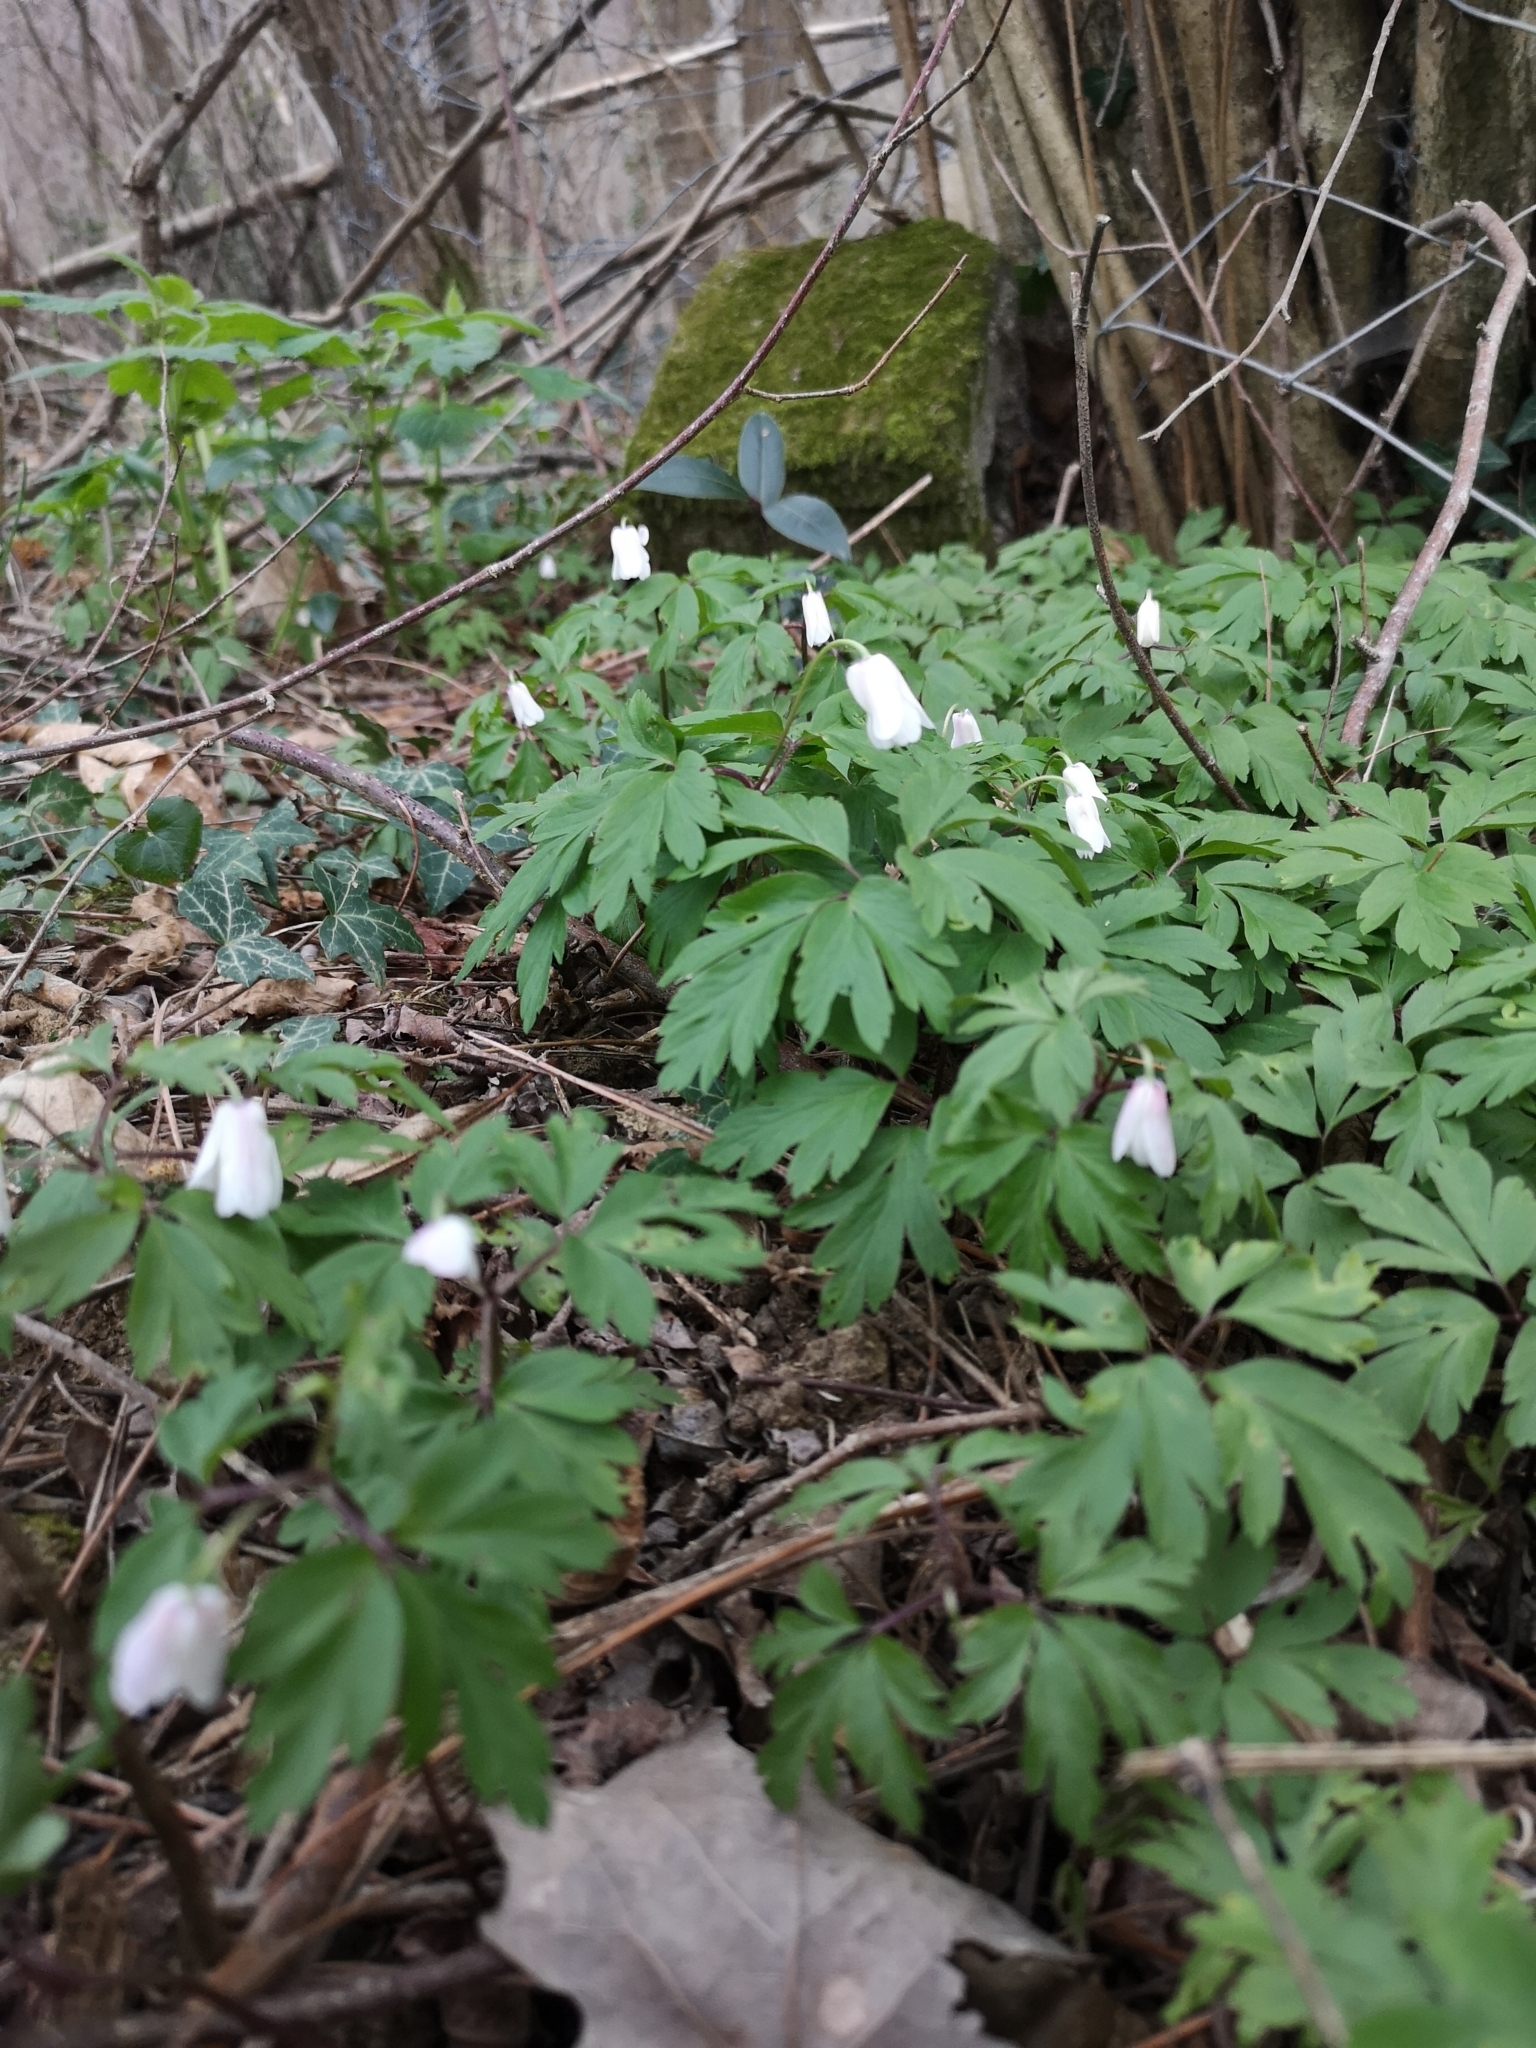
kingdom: Plantae
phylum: Tracheophyta
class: Magnoliopsida
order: Ranunculales
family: Ranunculaceae
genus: Anemone
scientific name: Anemone nemorosa
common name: Wood anemone
